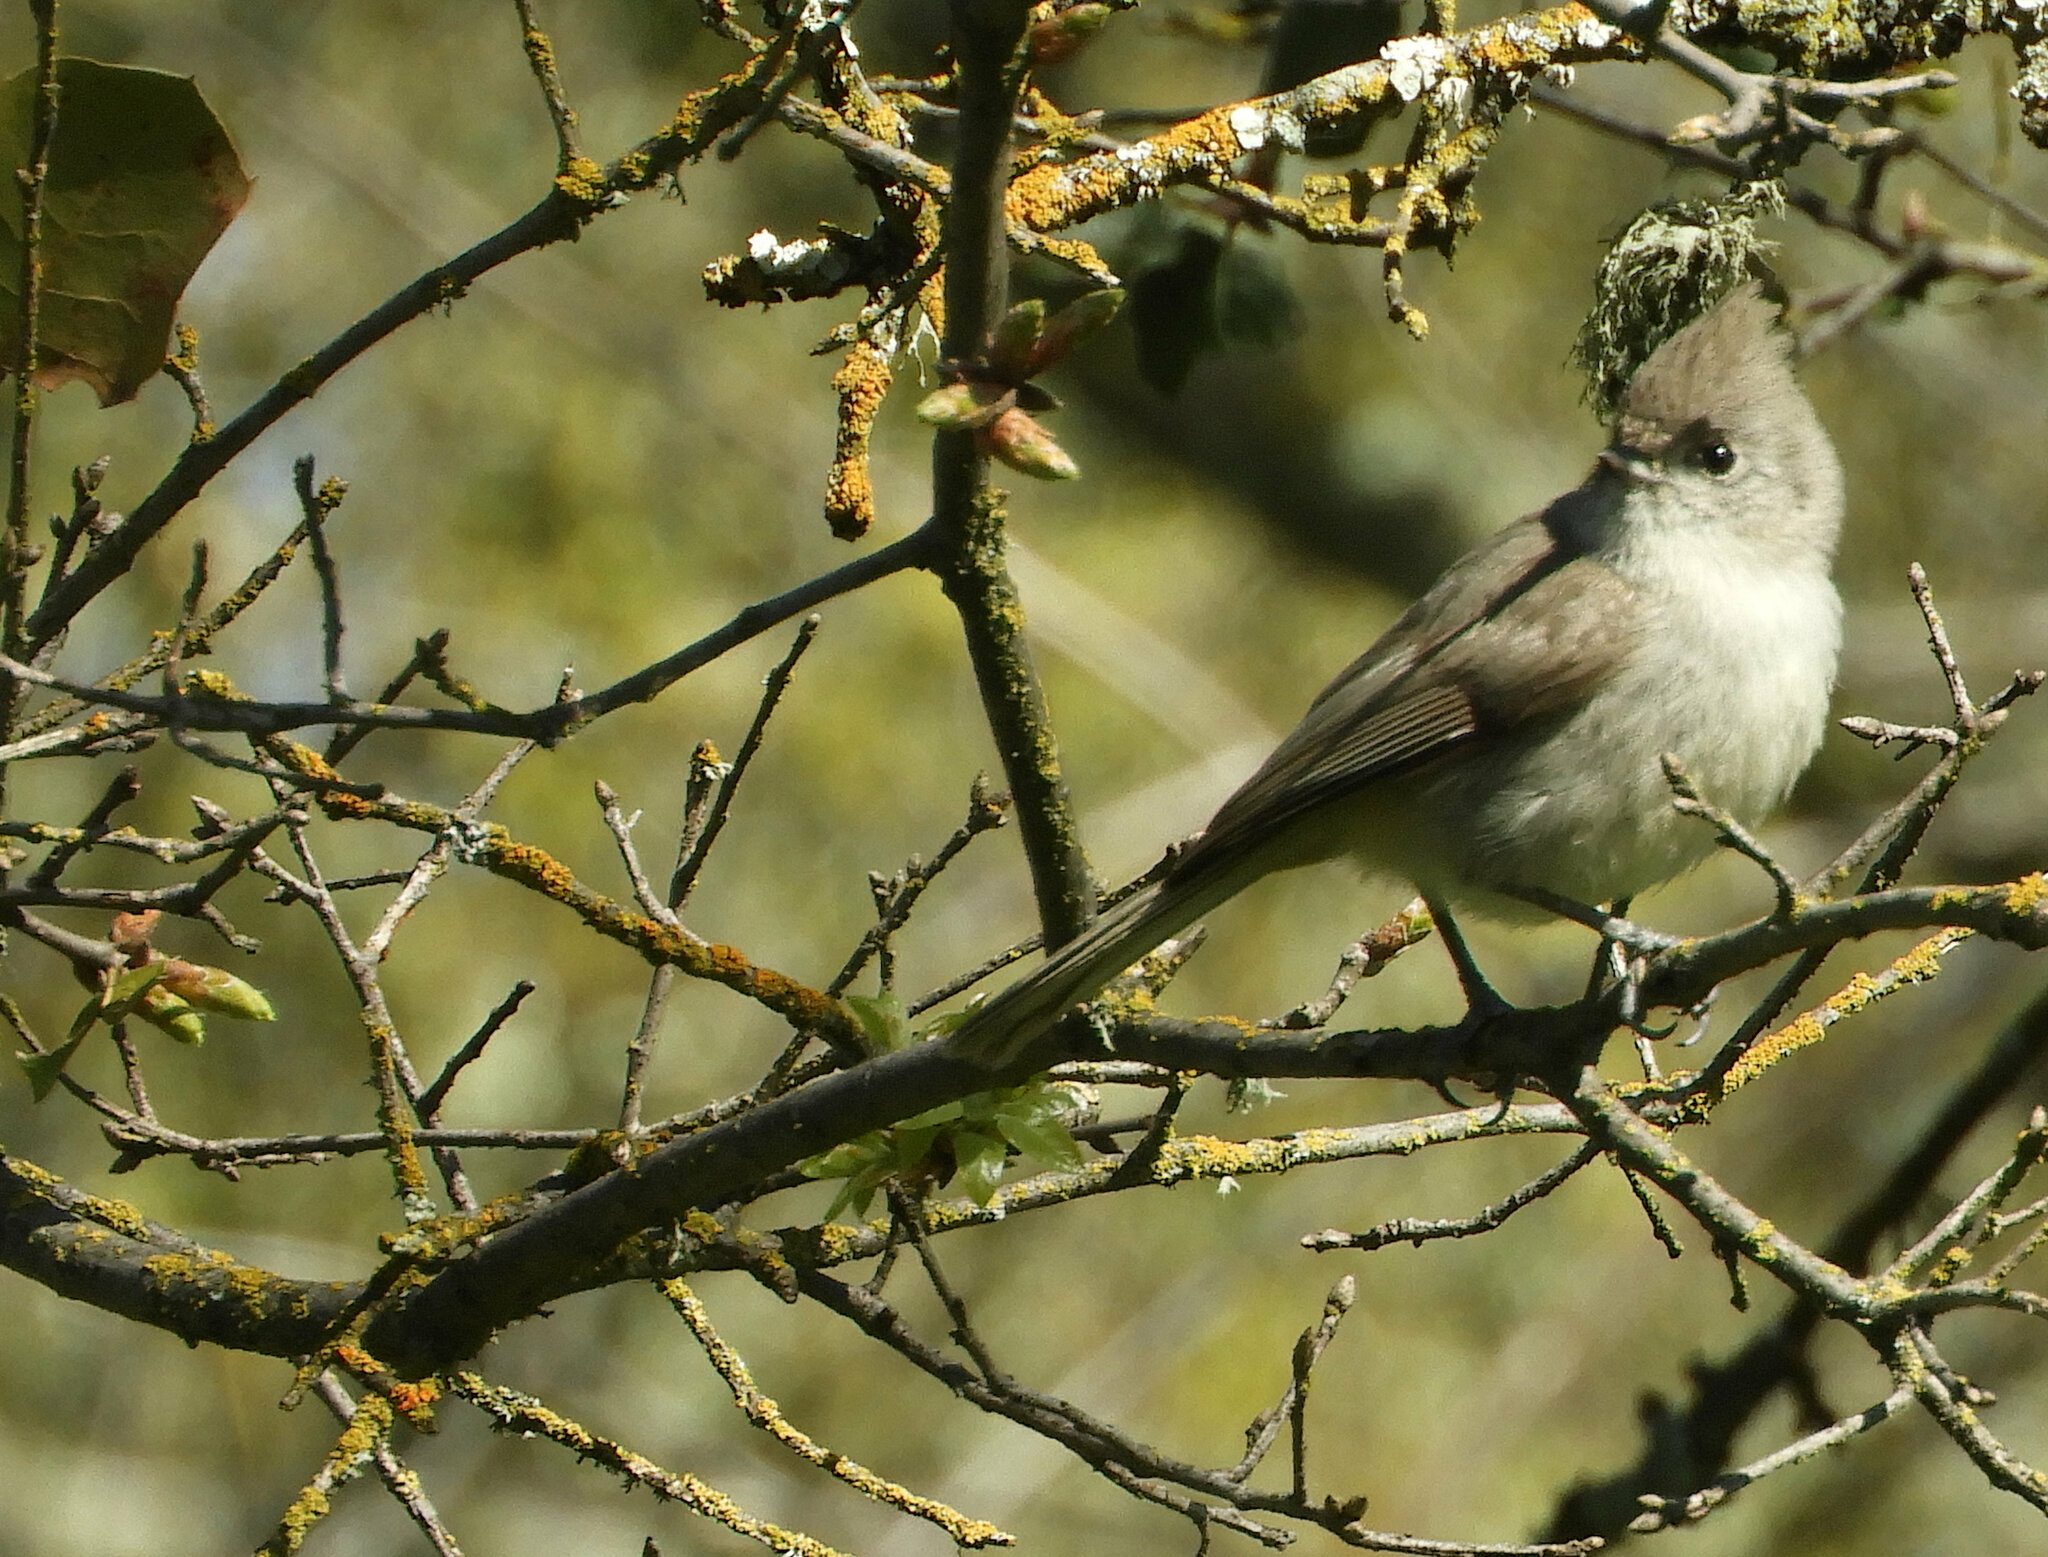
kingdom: Animalia
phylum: Chordata
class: Aves
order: Passeriformes
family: Paridae
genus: Baeolophus
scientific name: Baeolophus inornatus
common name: Oak titmouse
